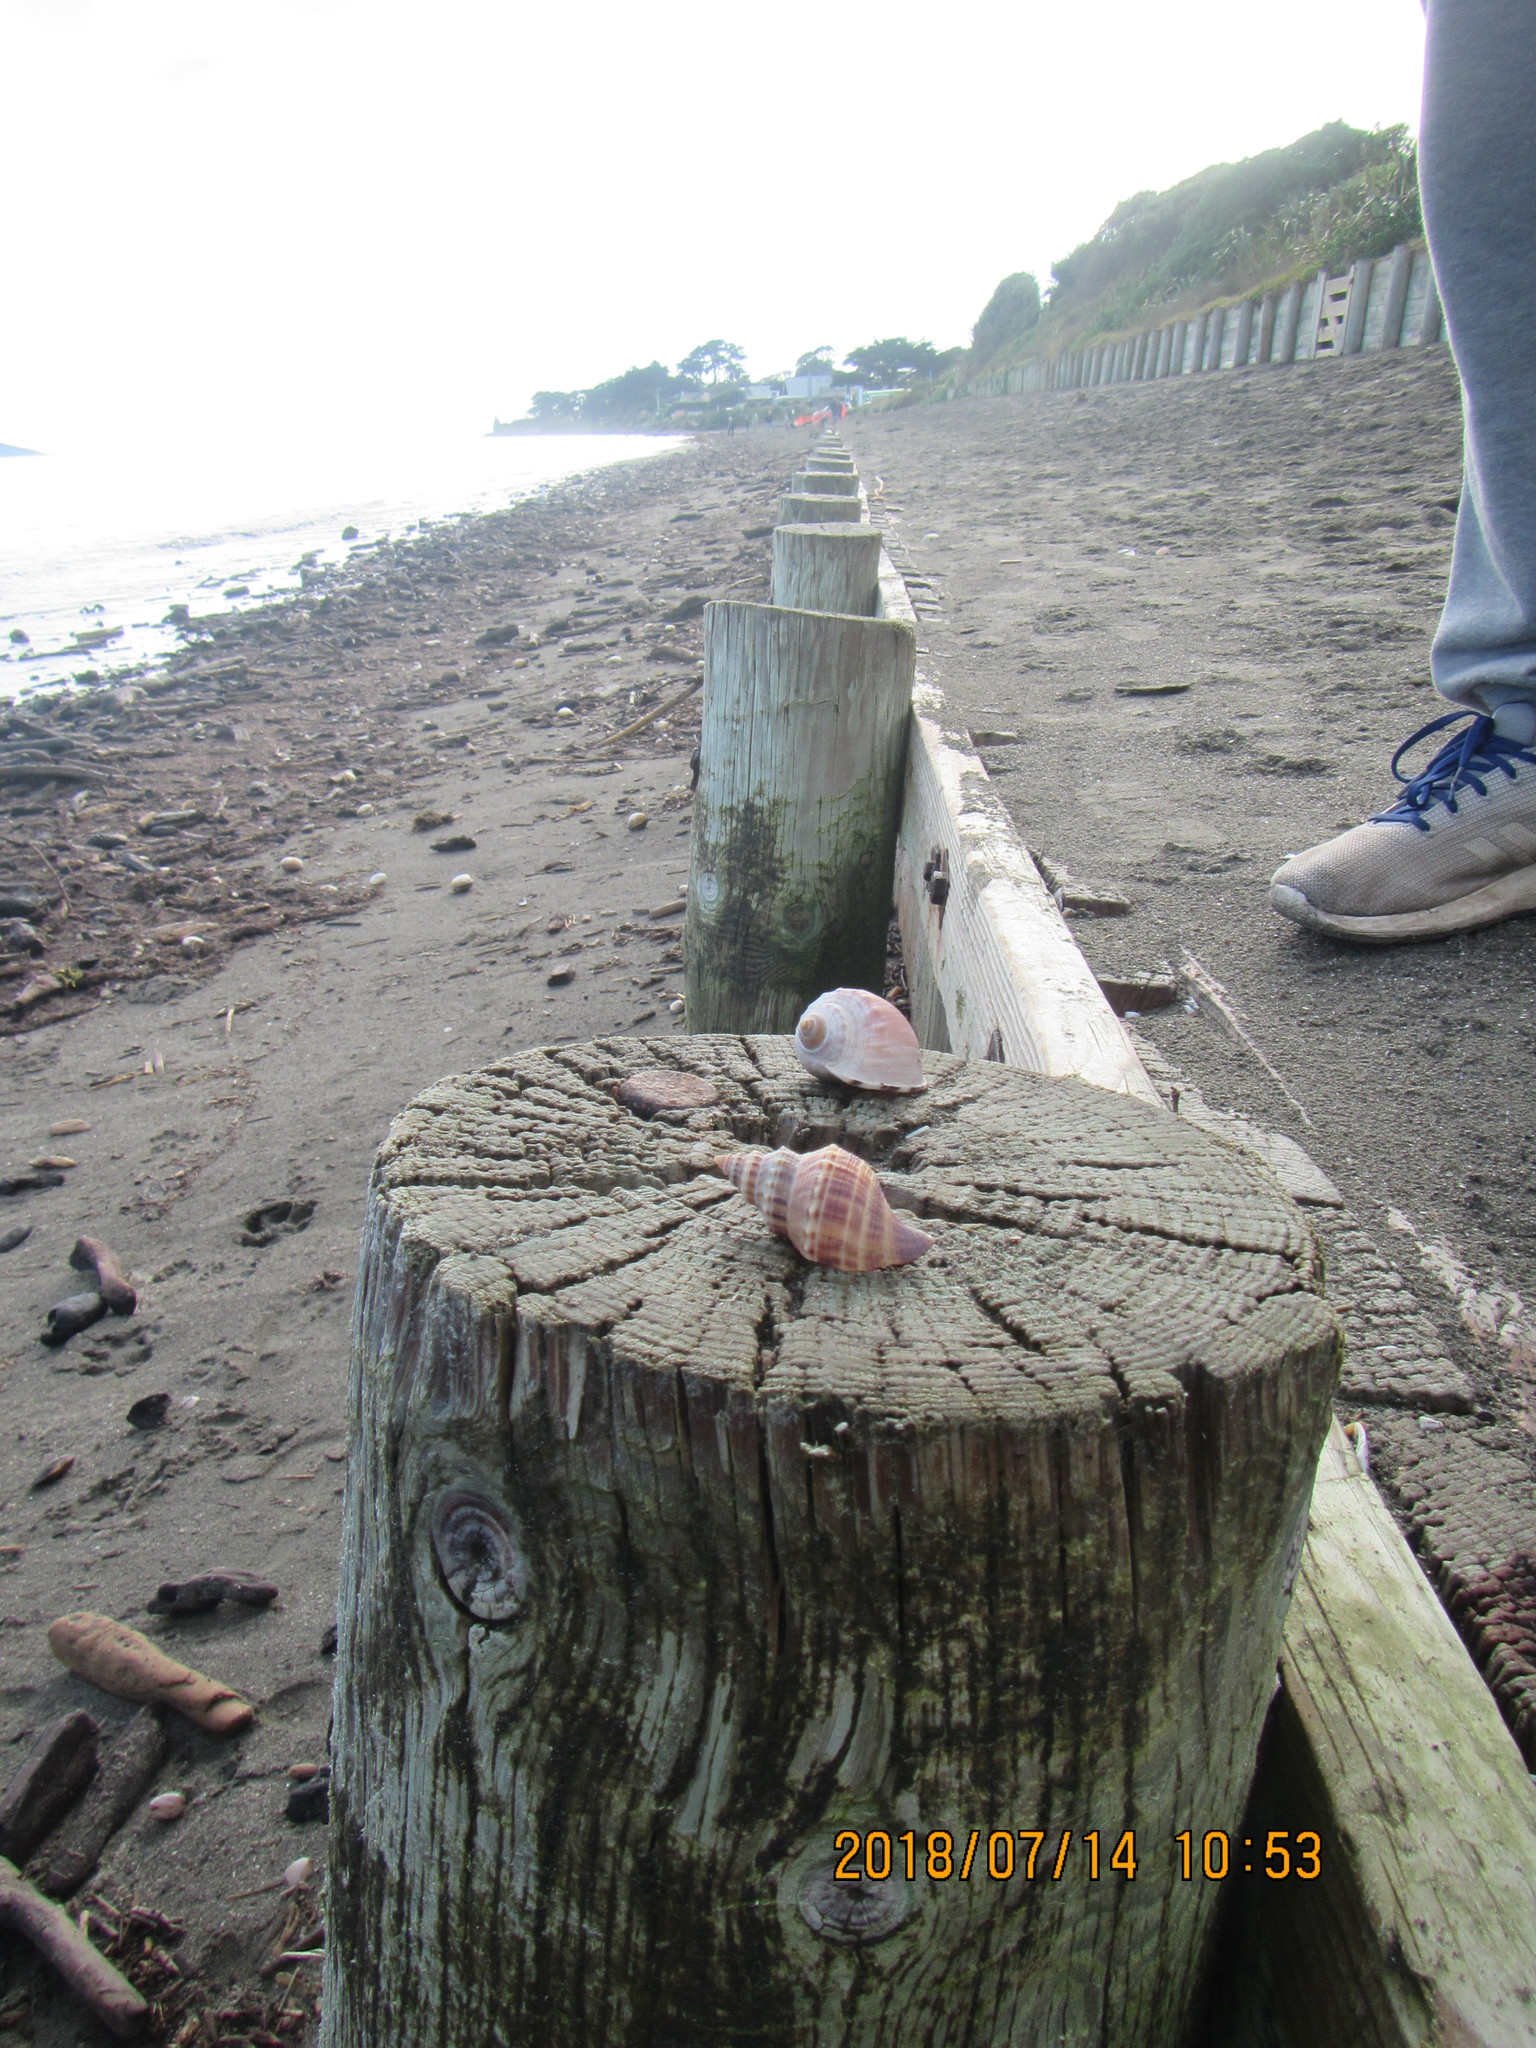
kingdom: Animalia
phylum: Mollusca
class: Gastropoda
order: Neogastropoda
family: Prosiphonidae
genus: Austrofusus
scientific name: Austrofusus glans
